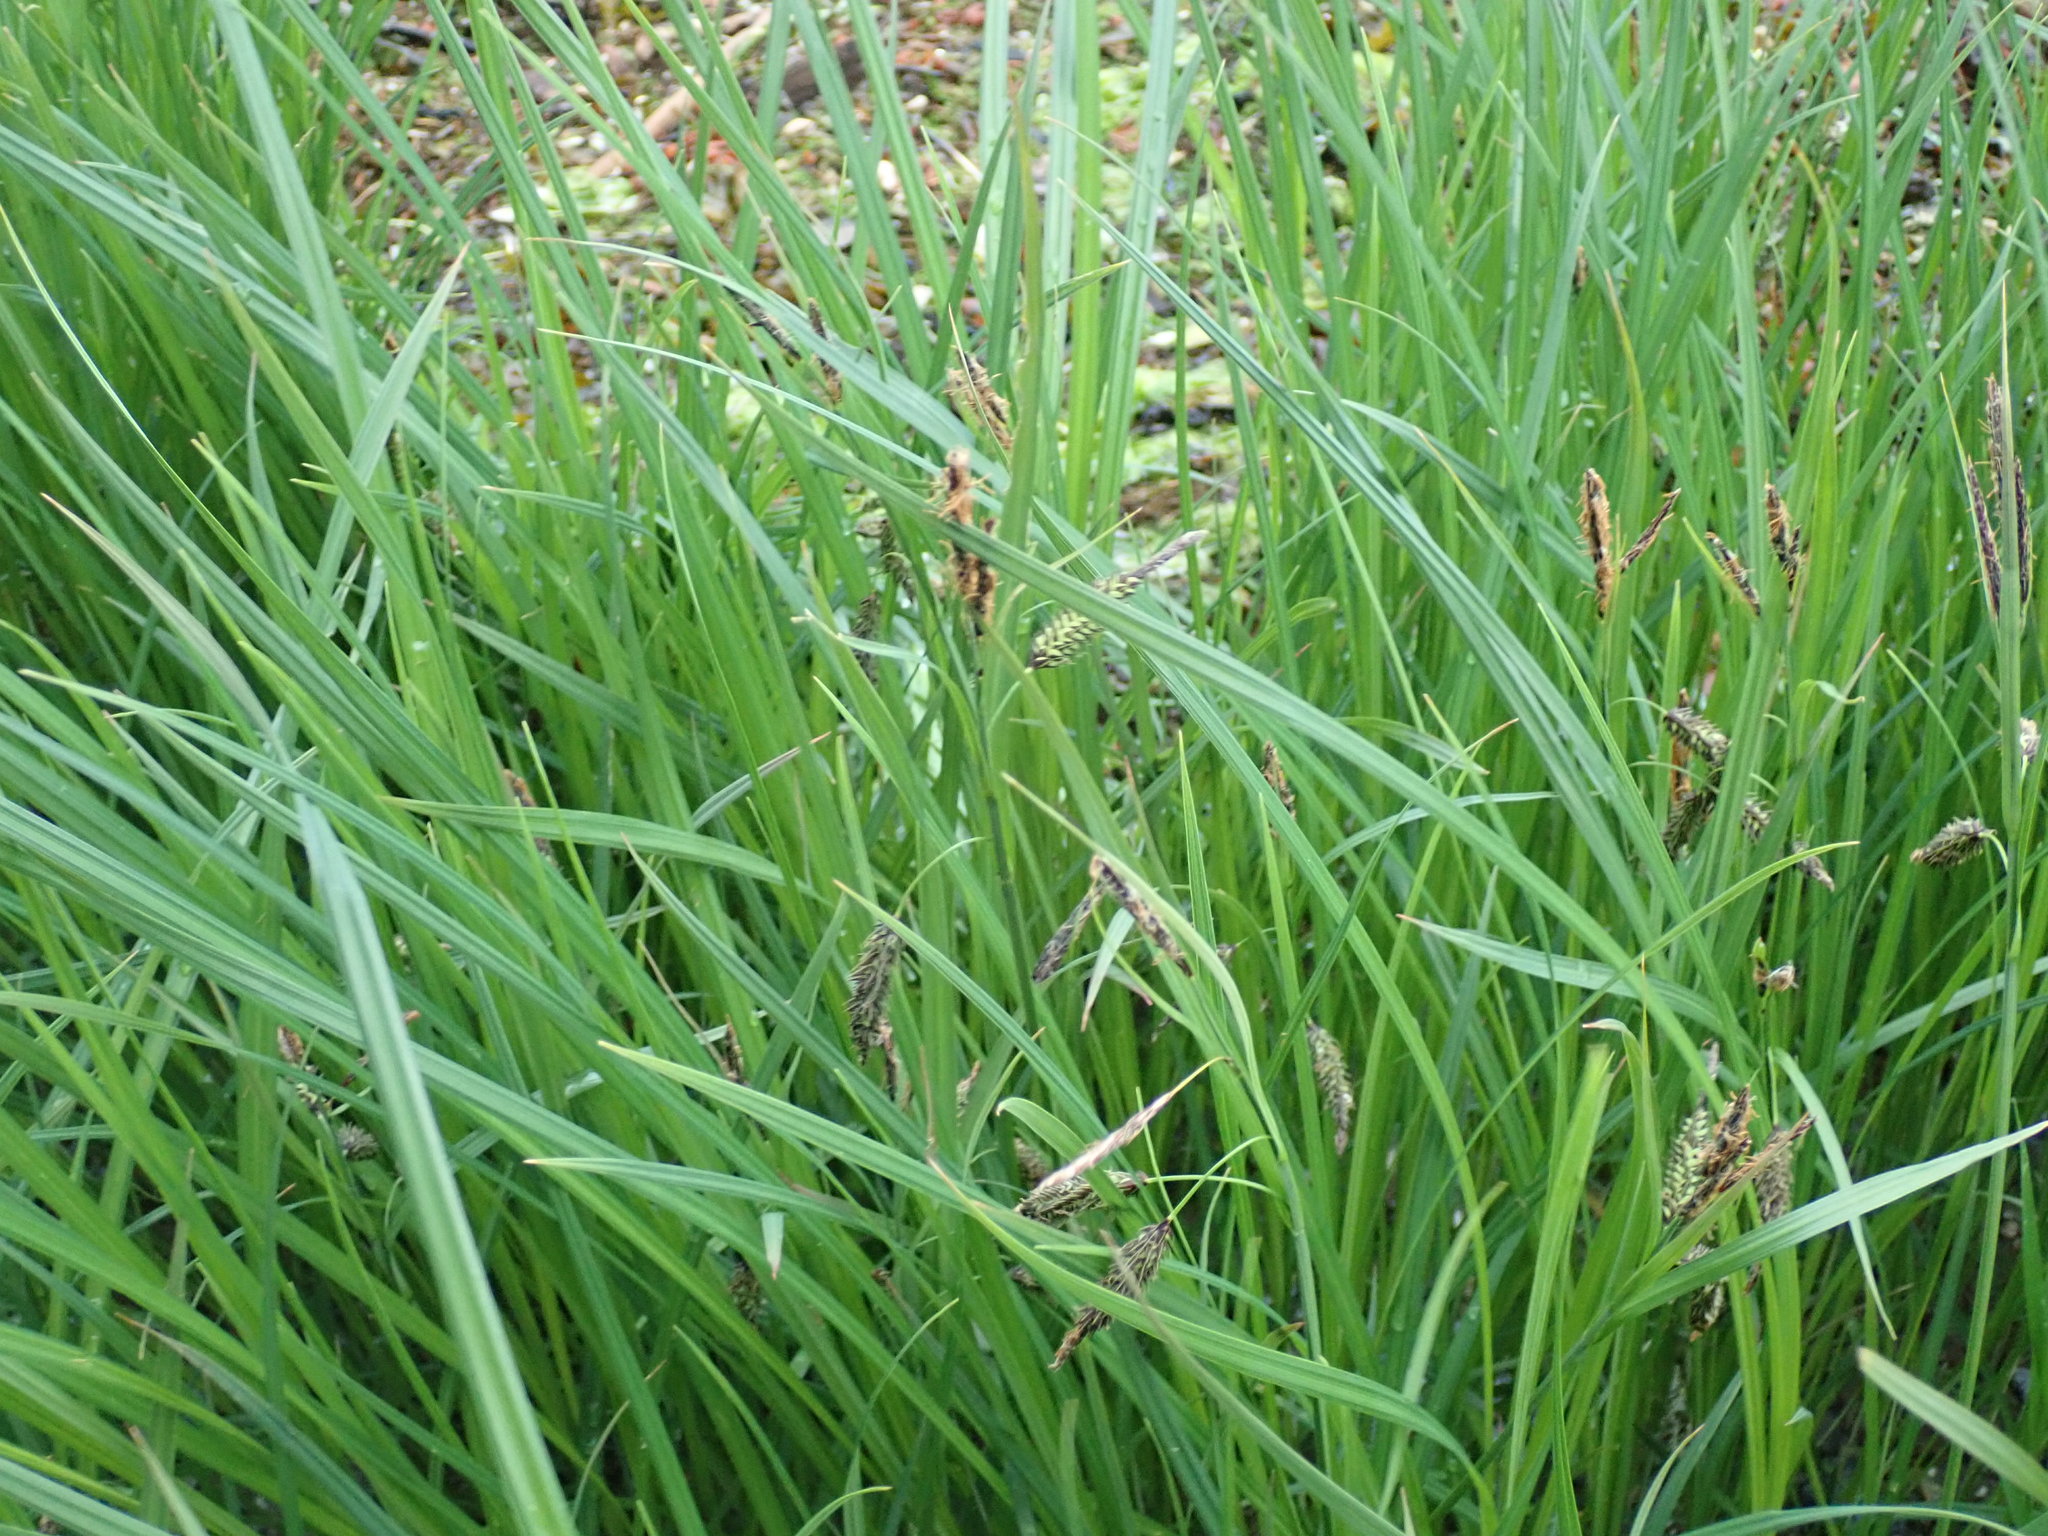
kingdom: Plantae
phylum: Tracheophyta
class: Liliopsida
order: Poales
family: Cyperaceae
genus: Carex
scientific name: Carex lyngbyei
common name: Lyngbye's sedge
